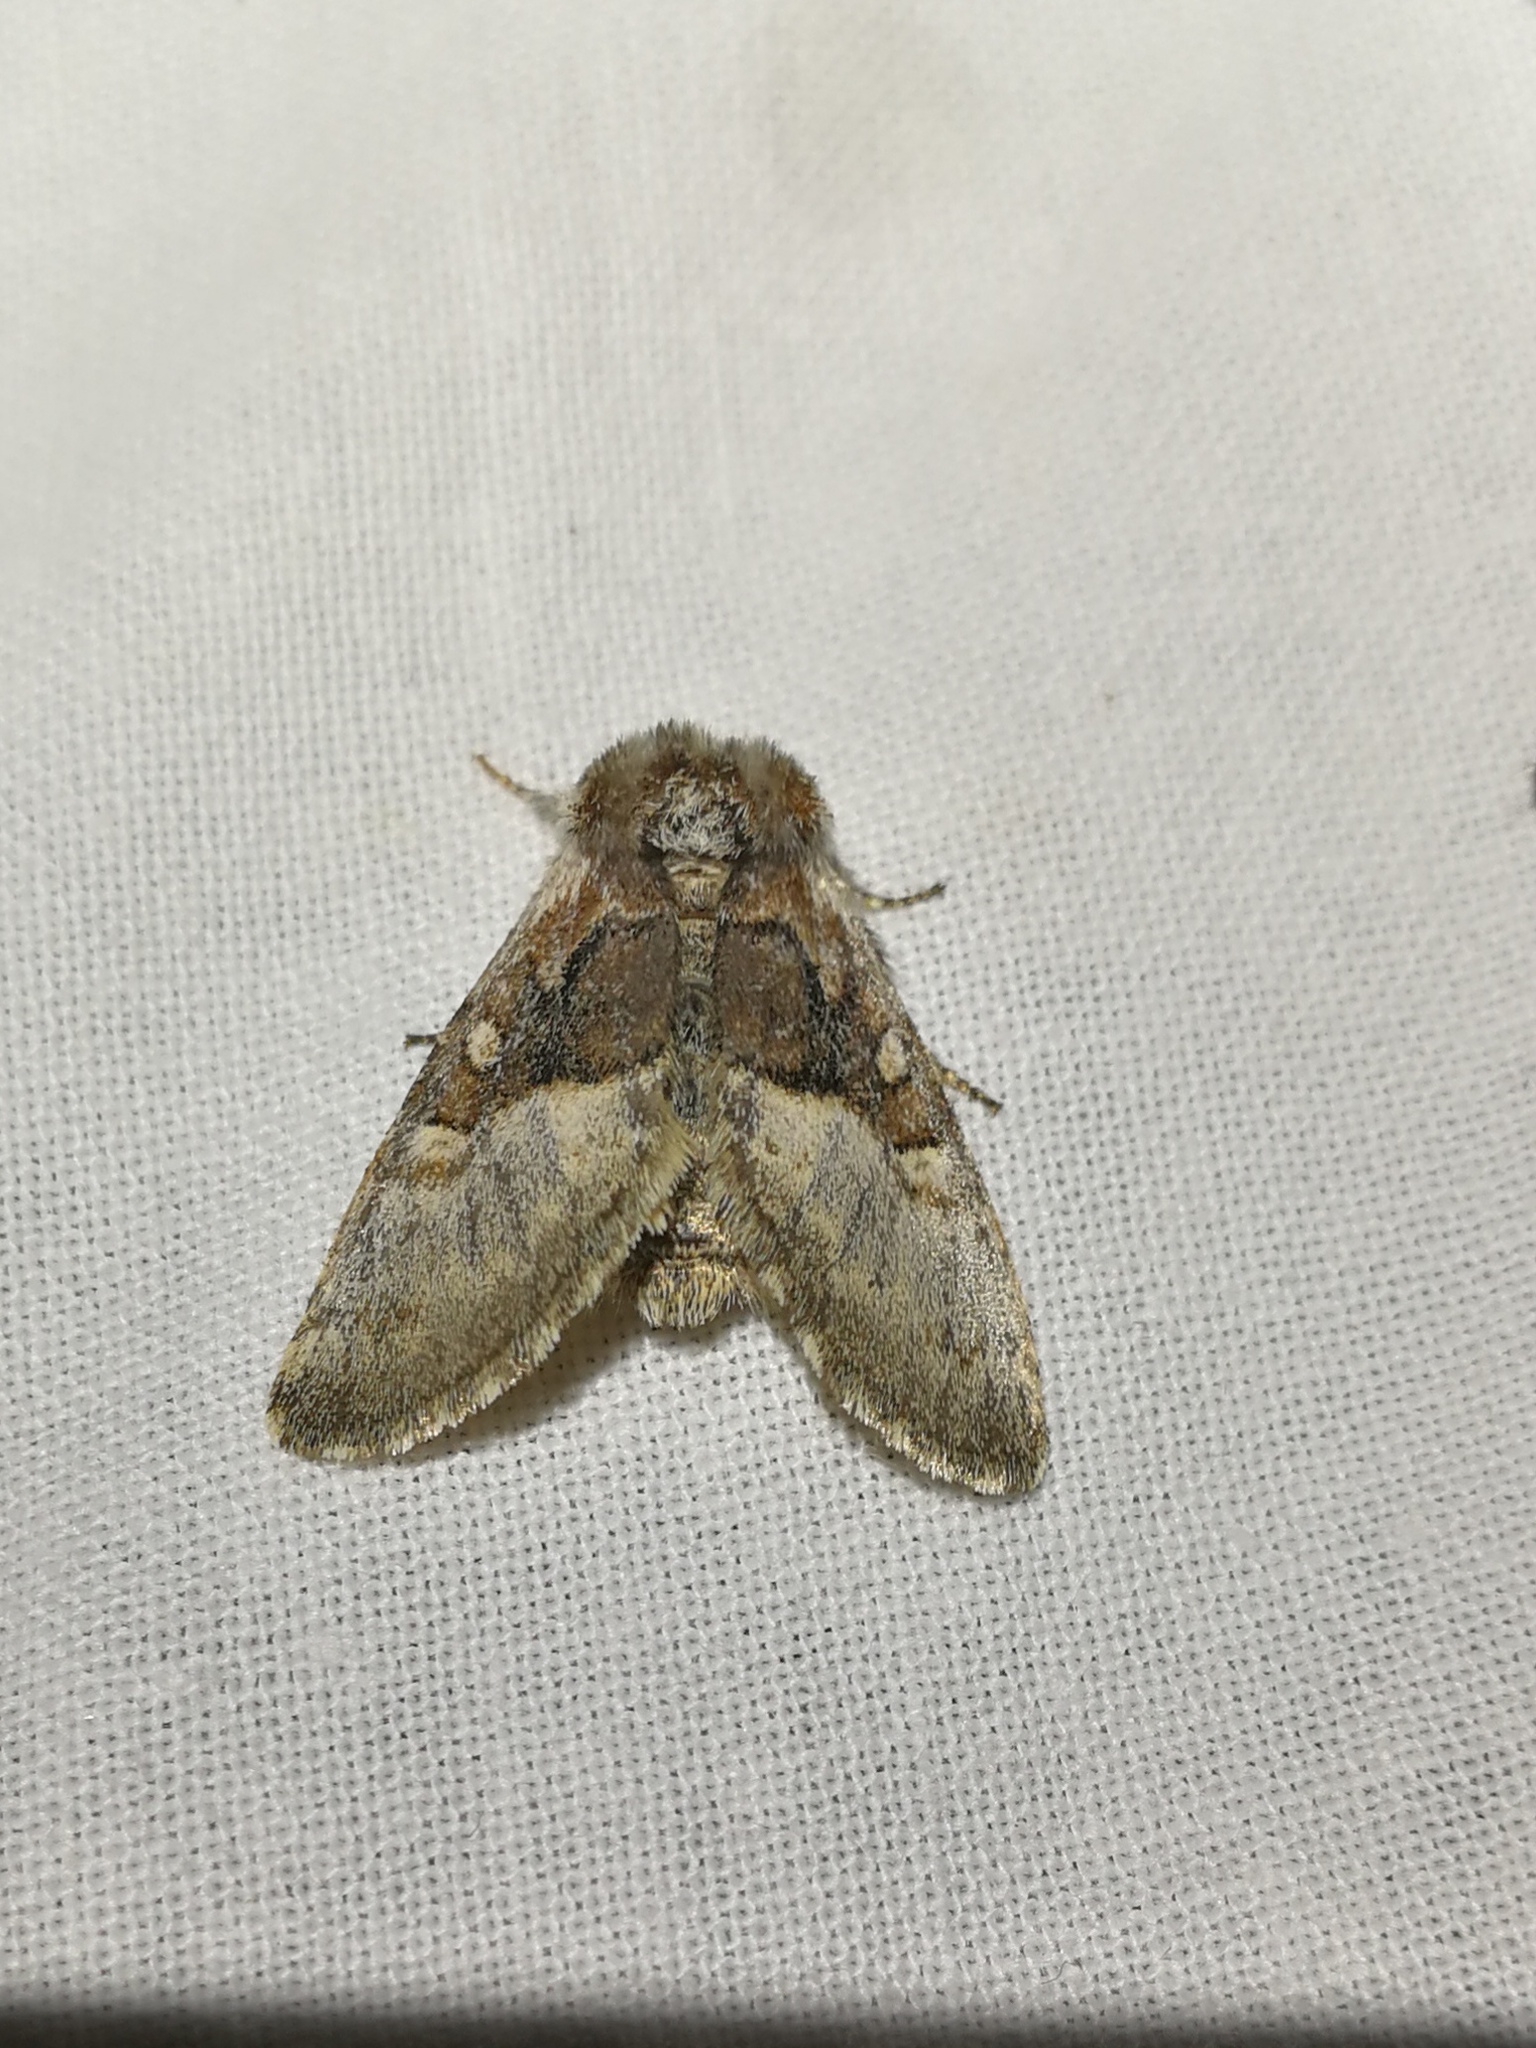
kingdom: Animalia
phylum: Arthropoda
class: Insecta
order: Lepidoptera
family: Noctuidae
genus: Colocasia
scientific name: Colocasia coryli
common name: Nut-tree tussock
